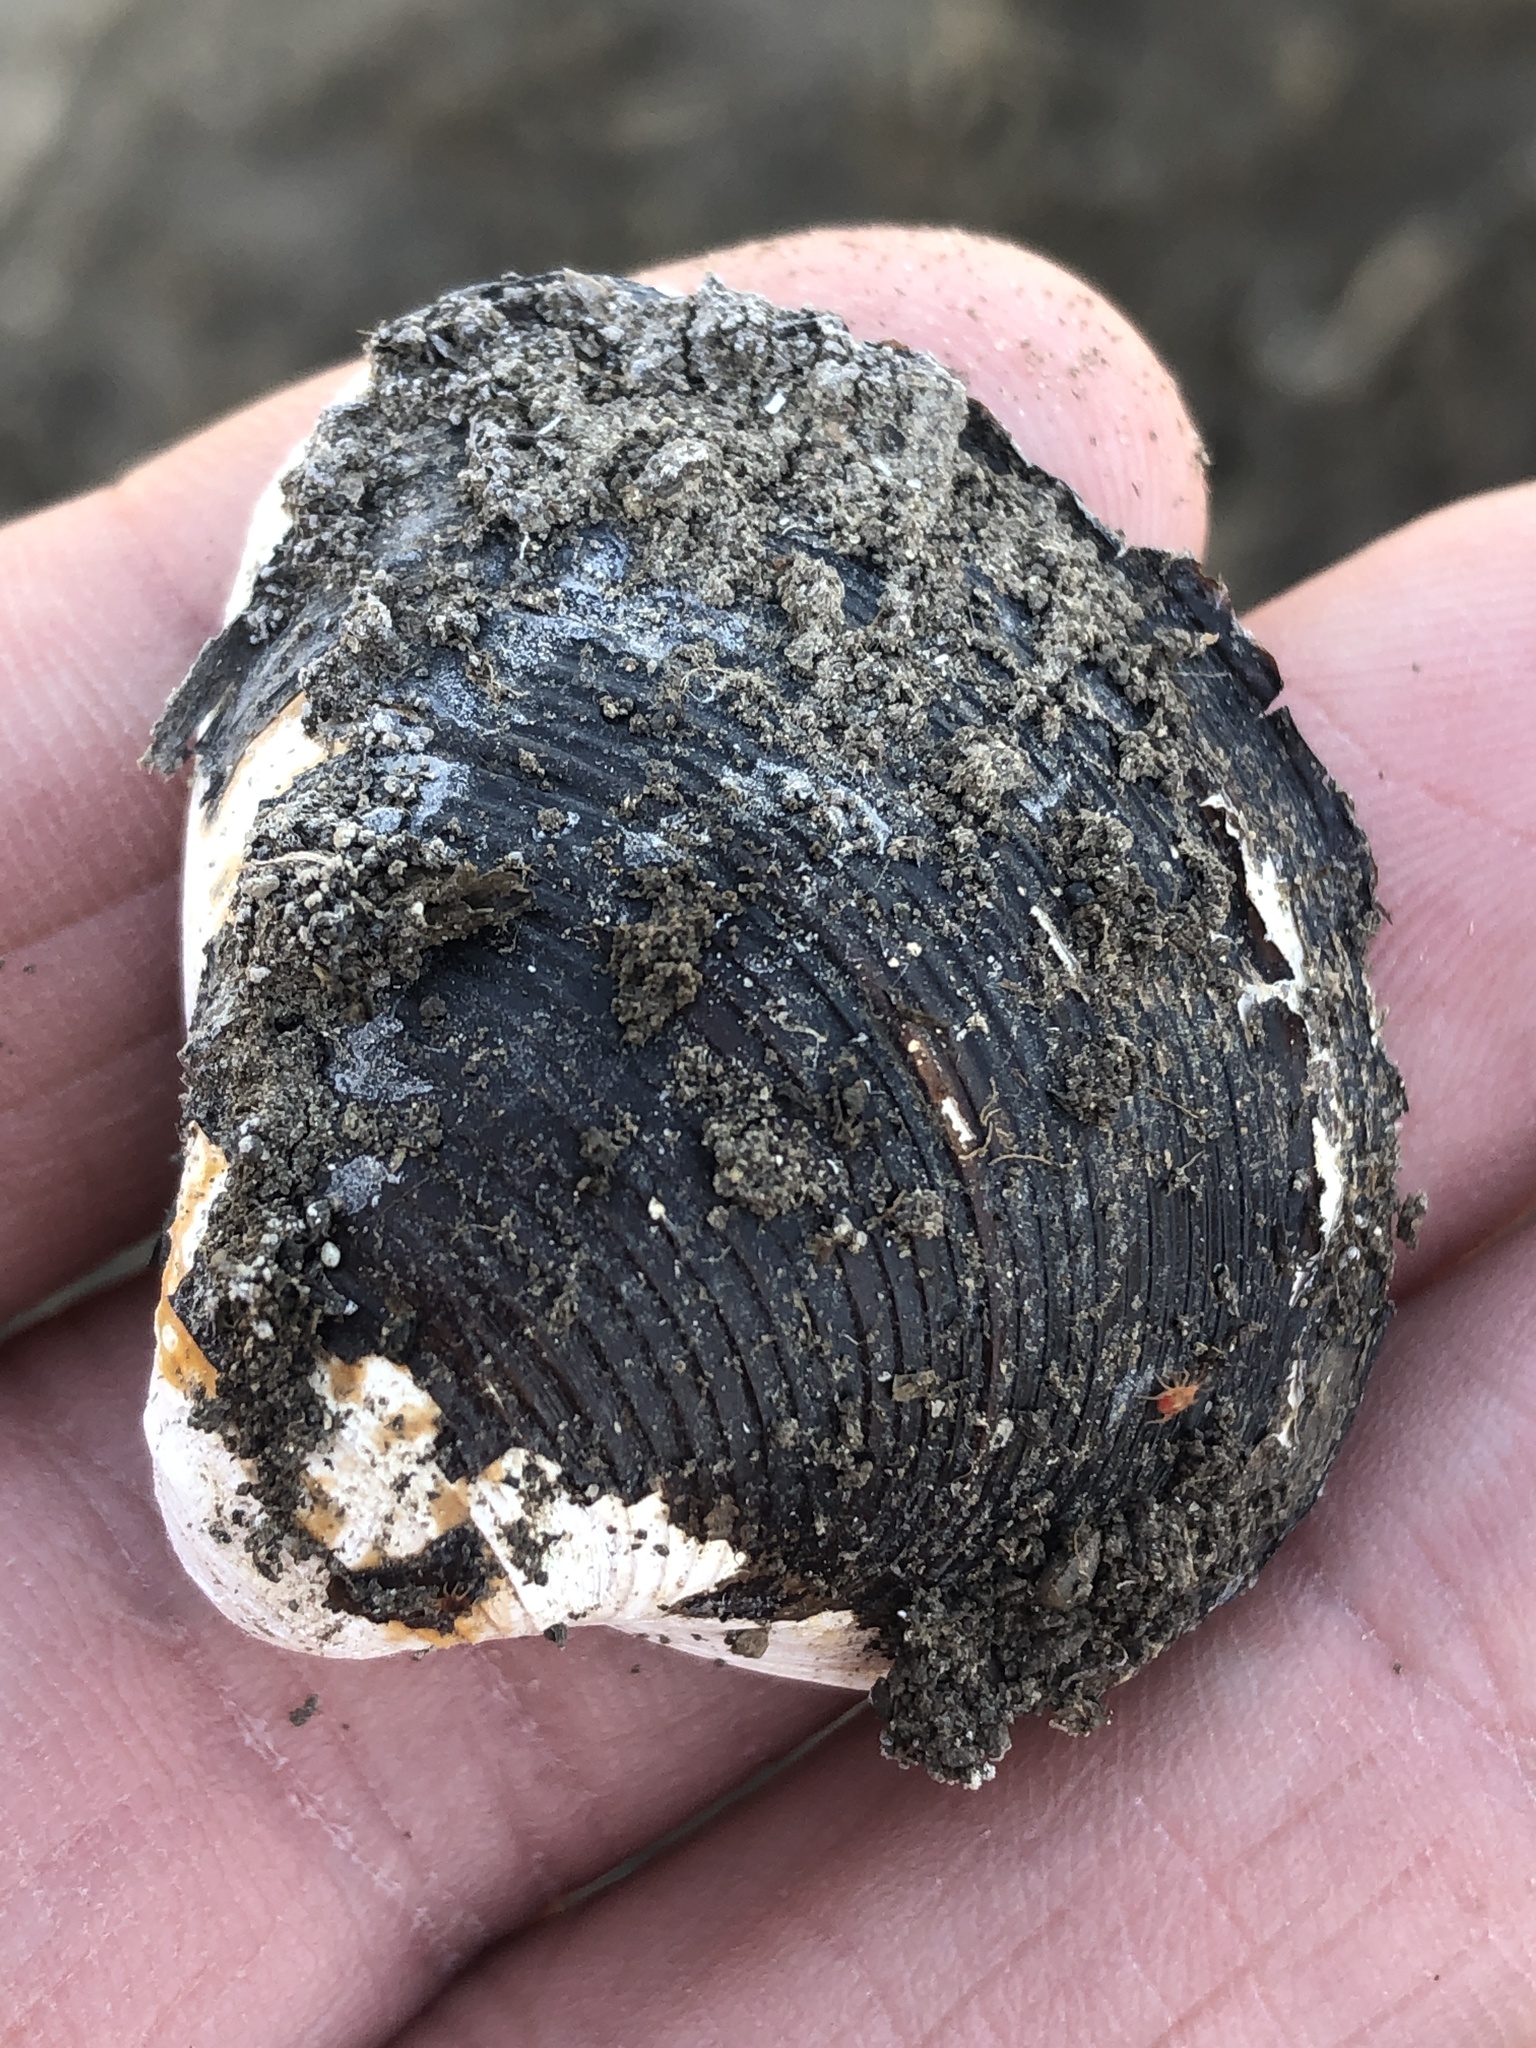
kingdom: Animalia
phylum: Mollusca
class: Bivalvia
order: Venerida
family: Cyrenidae
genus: Corbicula
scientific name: Corbicula fluminea
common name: Asian clam
